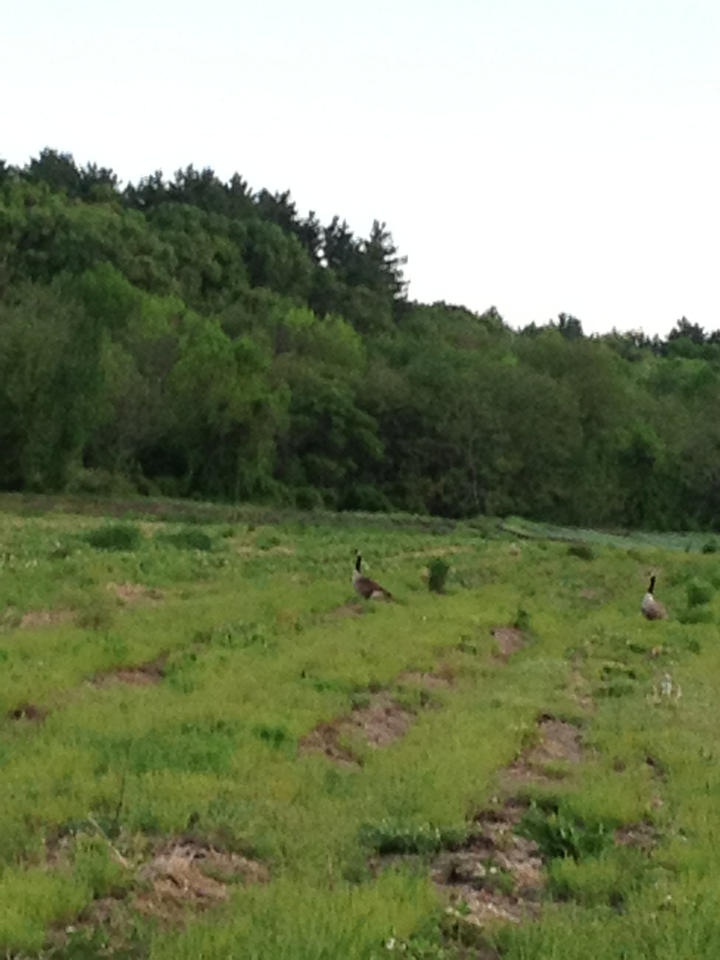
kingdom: Animalia
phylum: Chordata
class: Aves
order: Anseriformes
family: Anatidae
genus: Branta
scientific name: Branta canadensis
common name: Canada goose
